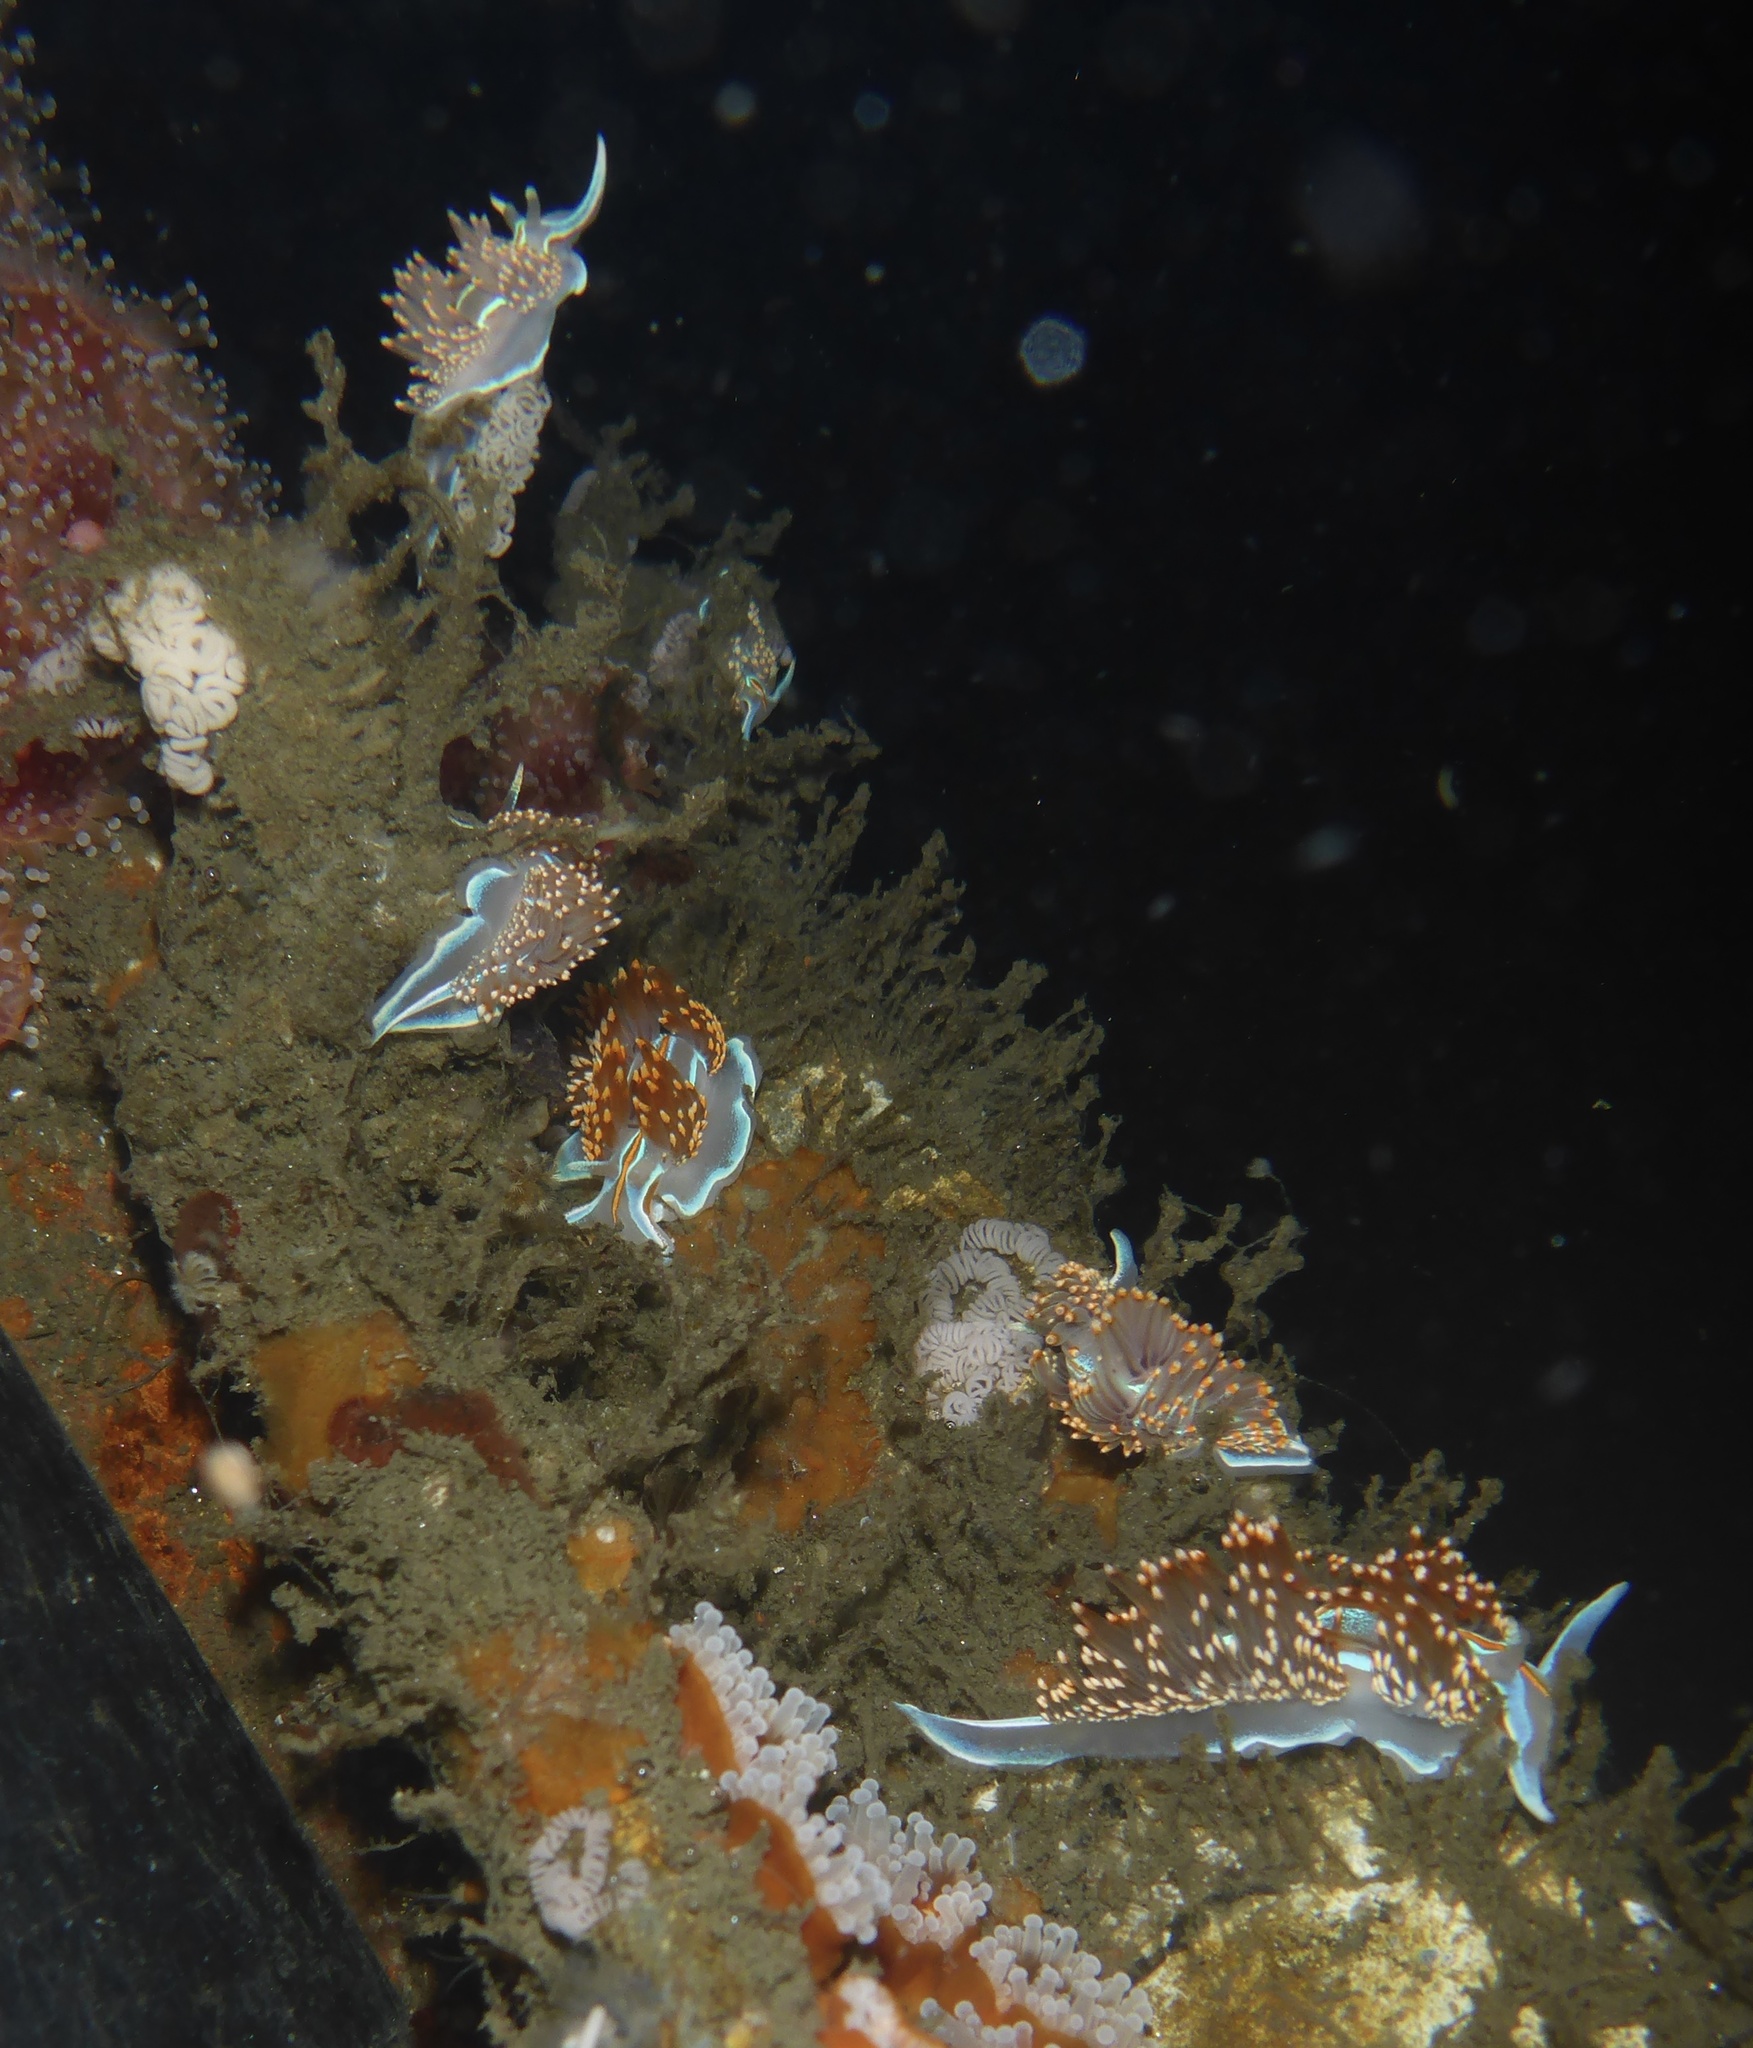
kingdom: Animalia
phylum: Mollusca
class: Gastropoda
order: Nudibranchia
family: Myrrhinidae
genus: Hermissenda
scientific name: Hermissenda opalescens
